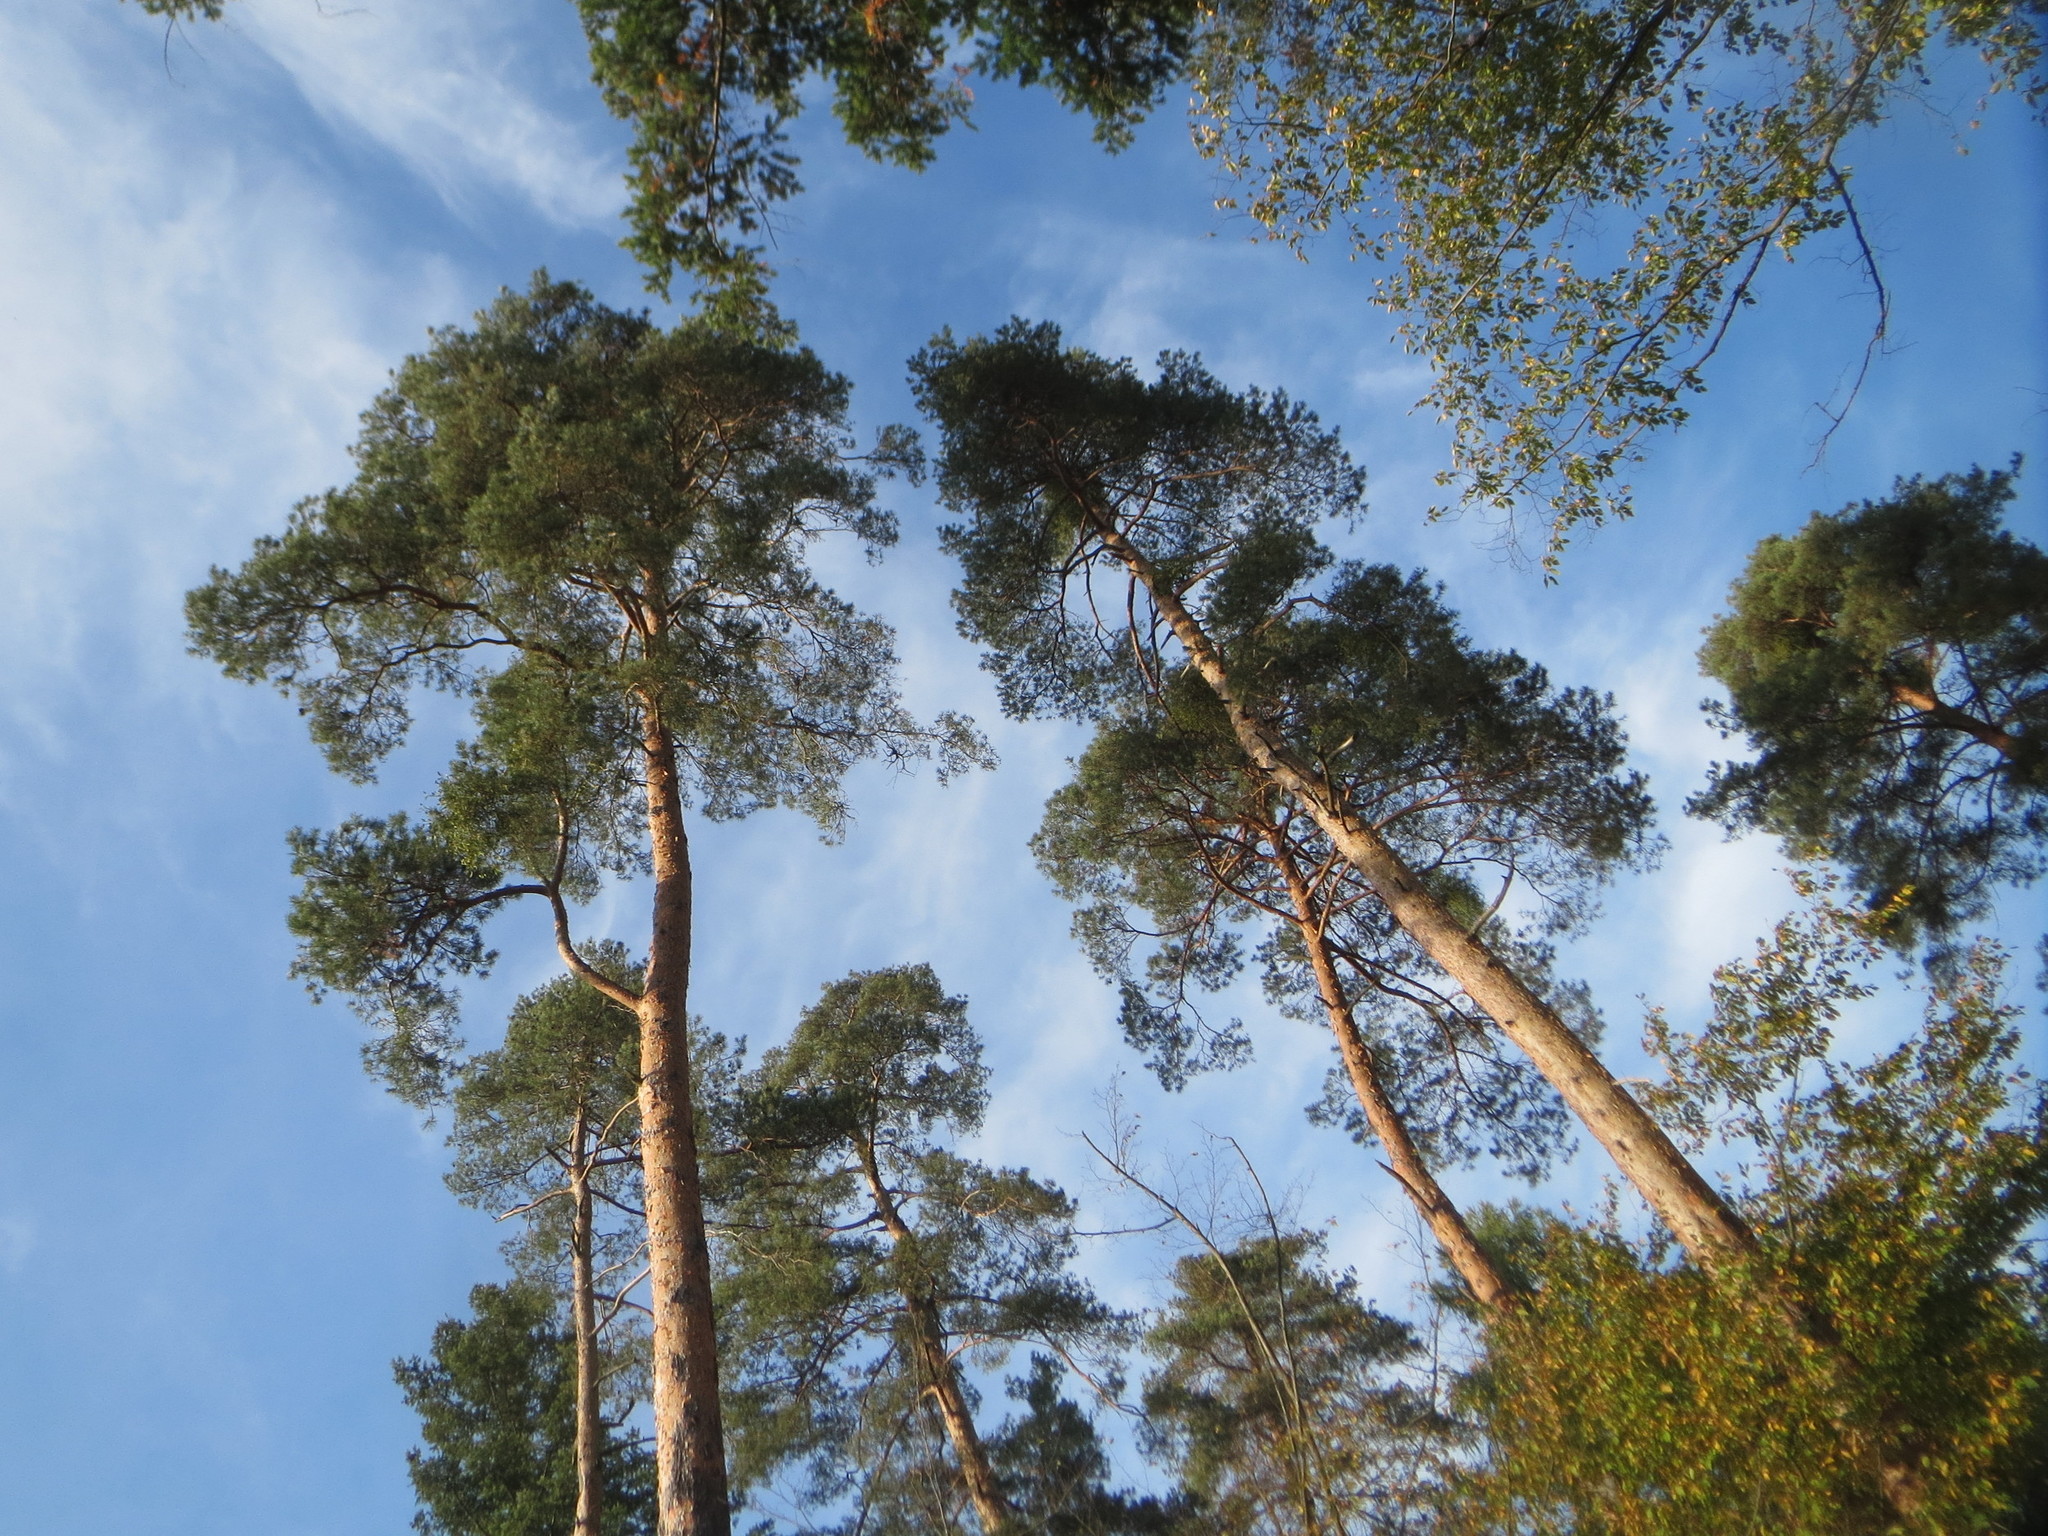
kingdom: Plantae
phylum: Tracheophyta
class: Pinopsida
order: Pinales
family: Pinaceae
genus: Pinus
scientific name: Pinus sylvestris
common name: Scots pine
